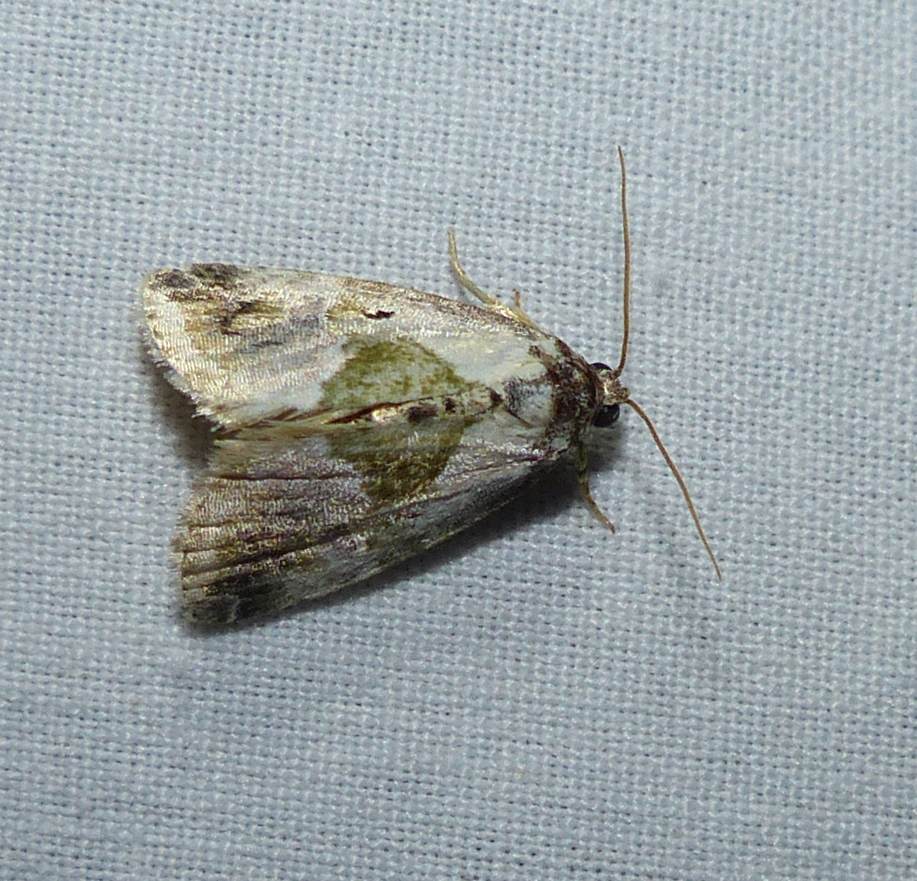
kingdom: Animalia
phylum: Arthropoda
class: Insecta
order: Lepidoptera
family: Noctuidae
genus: Maliattha
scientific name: Maliattha synochitis
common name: Black-dotted glyph
